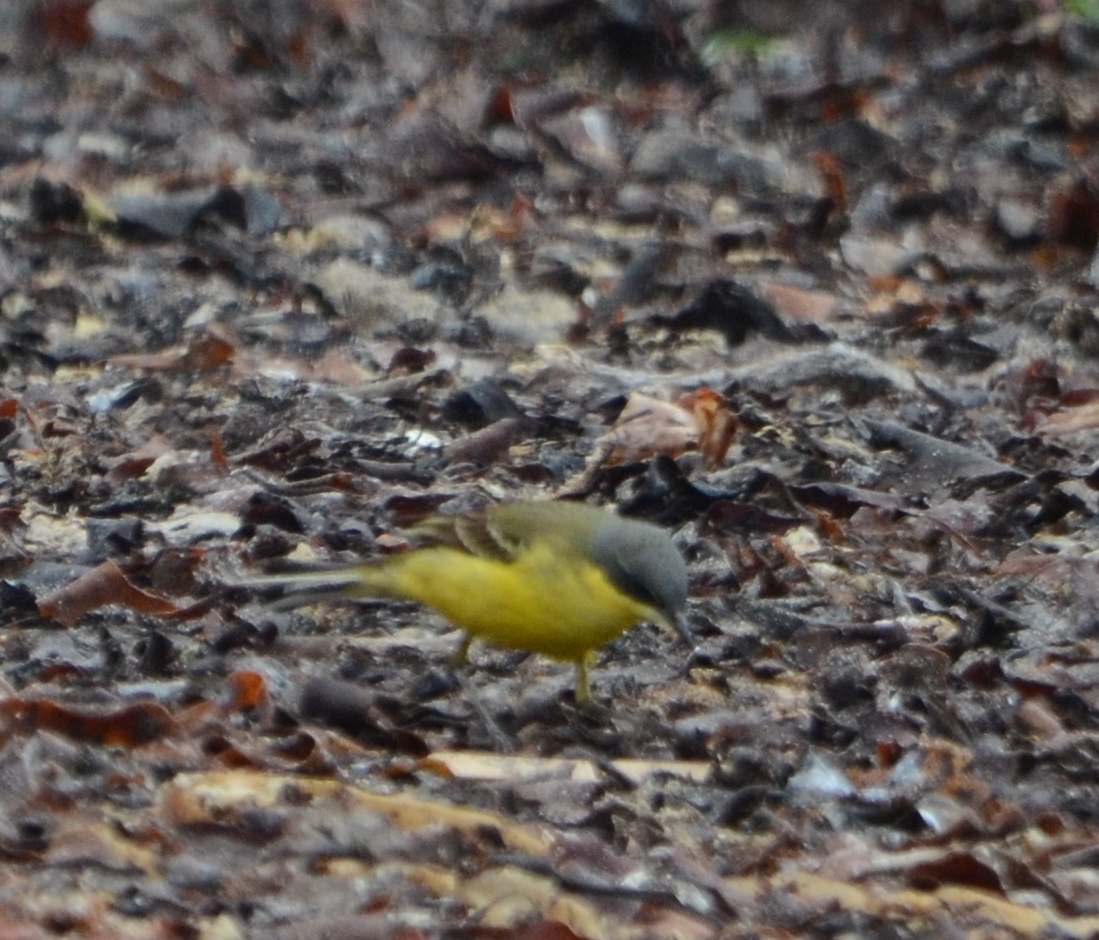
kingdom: Animalia
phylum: Chordata
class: Aves
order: Passeriformes
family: Motacillidae
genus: Motacilla
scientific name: Motacilla flava
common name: Western yellow wagtail
